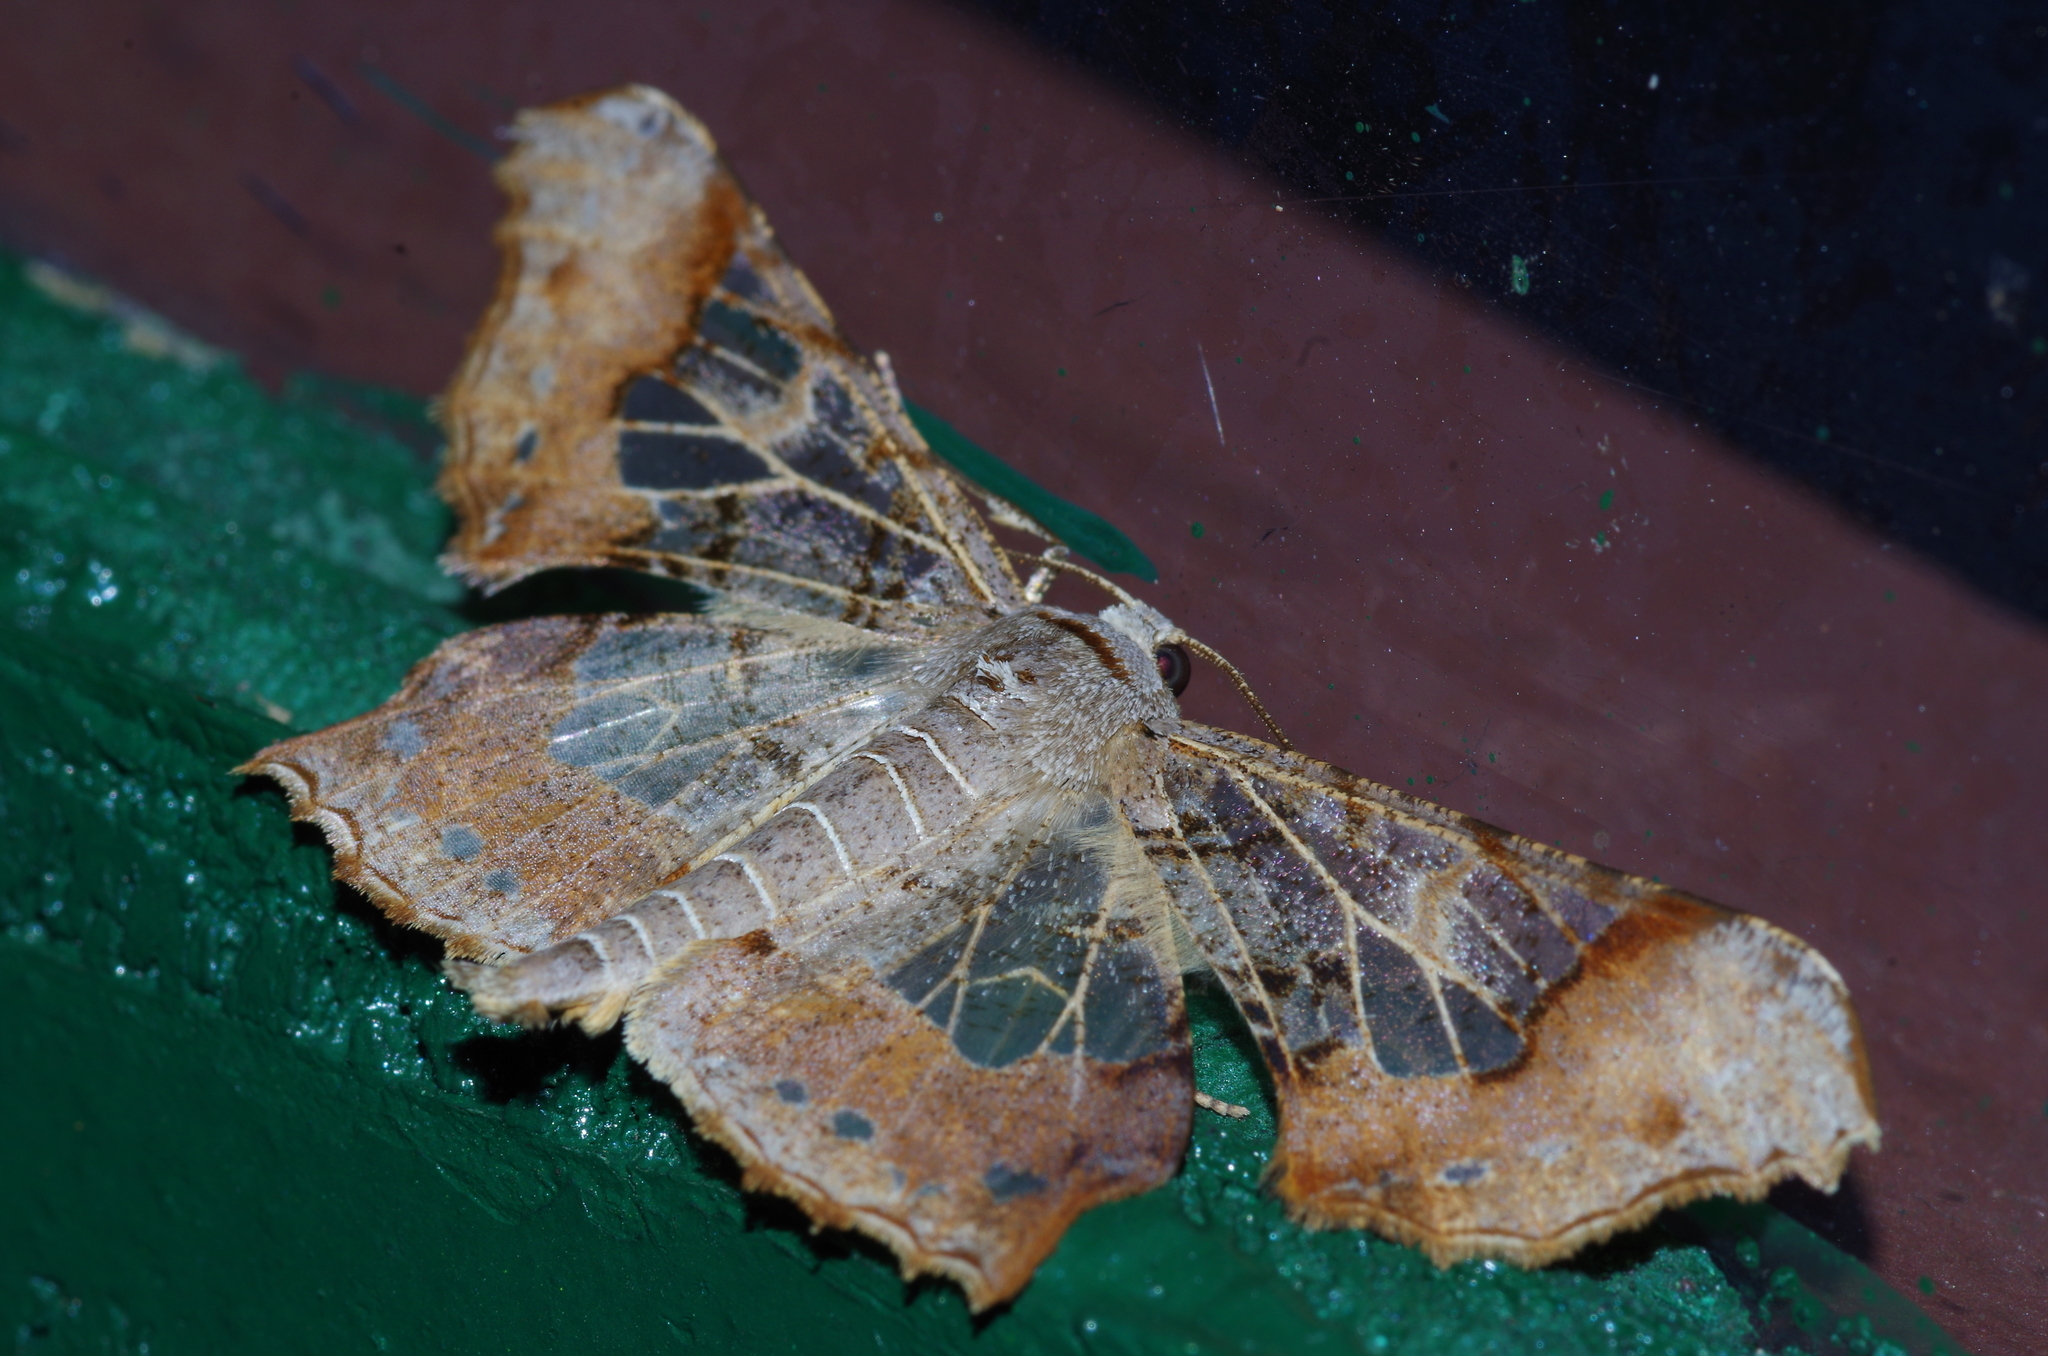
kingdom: Animalia
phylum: Arthropoda
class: Insecta
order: Lepidoptera
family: Geometridae
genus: Krananda
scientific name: Krananda semihyalina
